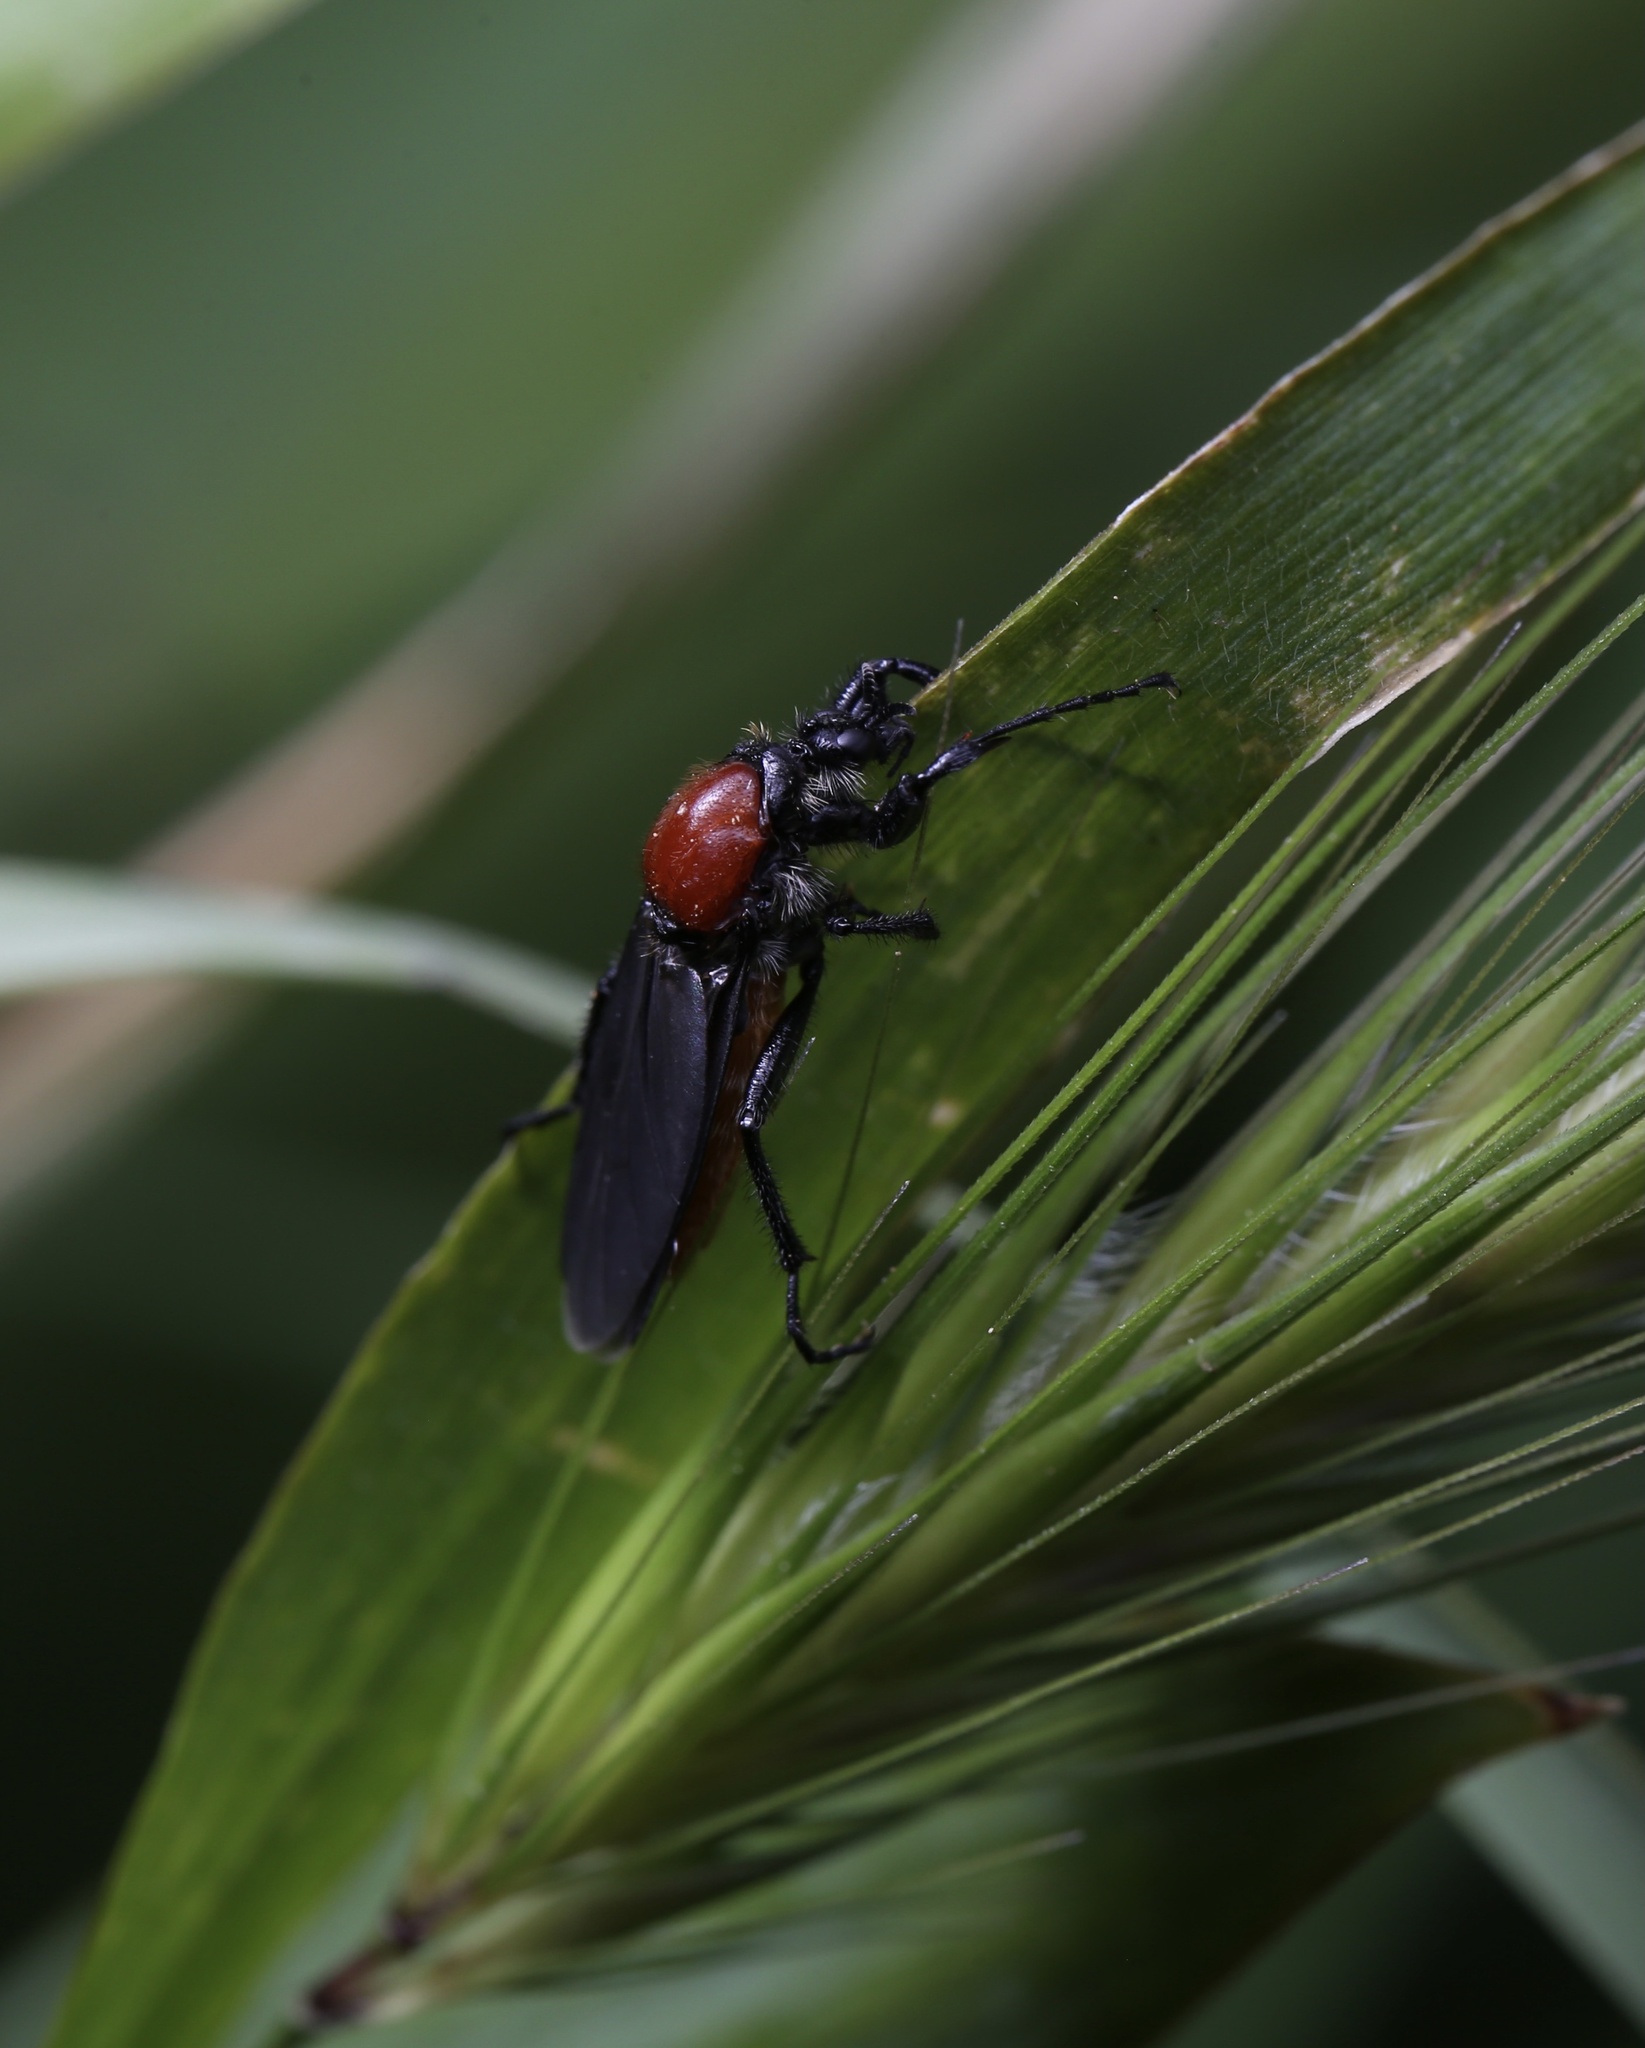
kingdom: Animalia
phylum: Arthropoda
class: Insecta
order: Diptera
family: Bibionidae
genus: Bibio
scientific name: Bibio hortulanus
